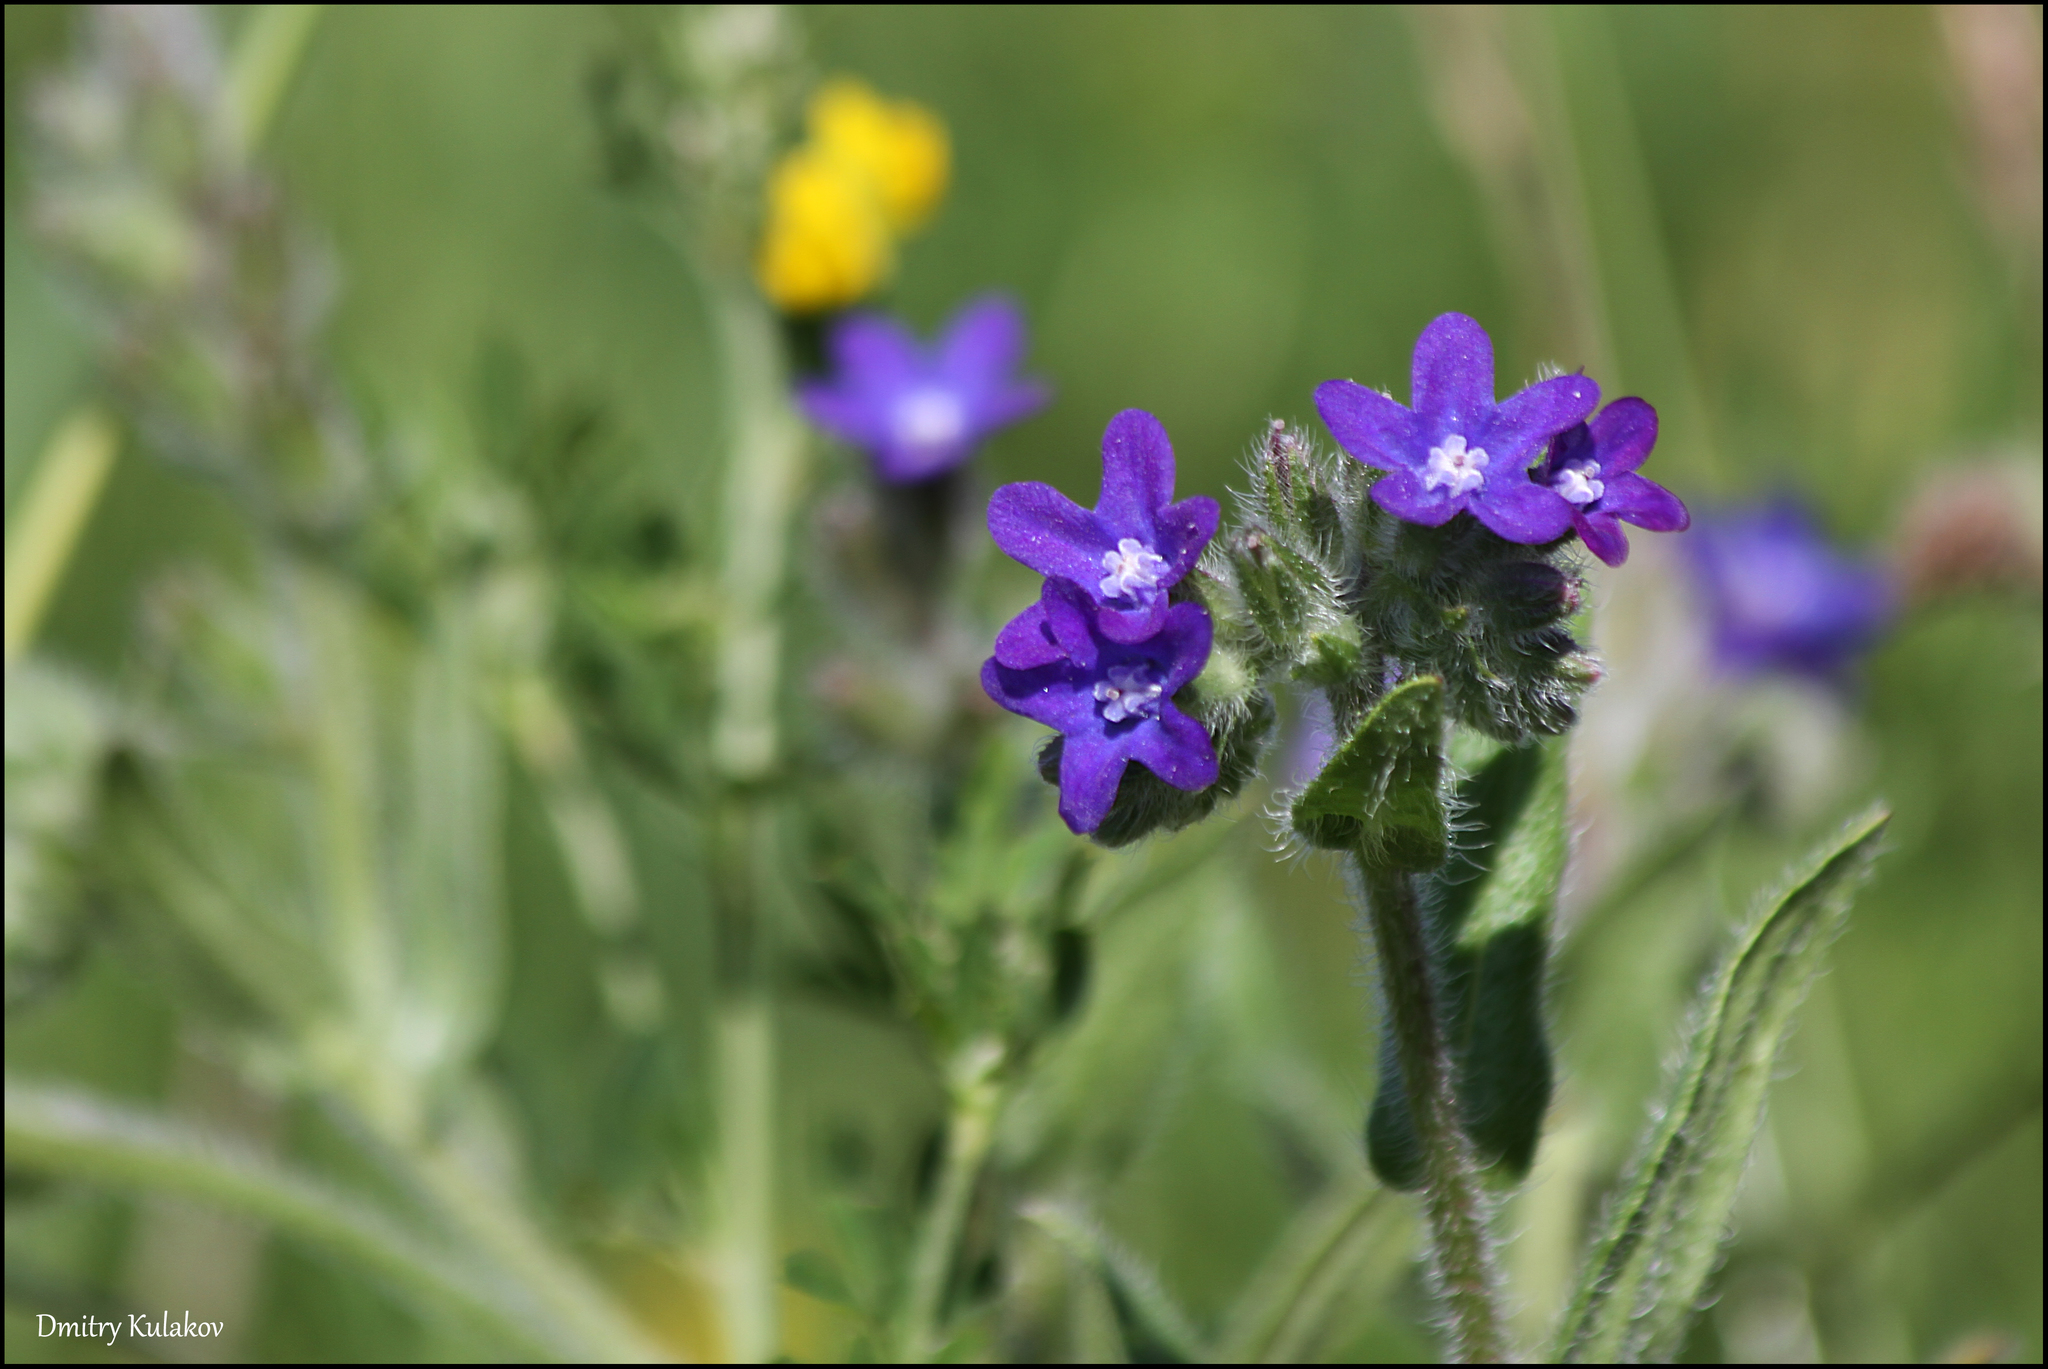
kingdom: Plantae
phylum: Tracheophyta
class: Magnoliopsida
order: Boraginales
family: Boraginaceae
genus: Anchusa
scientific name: Anchusa officinalis
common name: Alkanet
